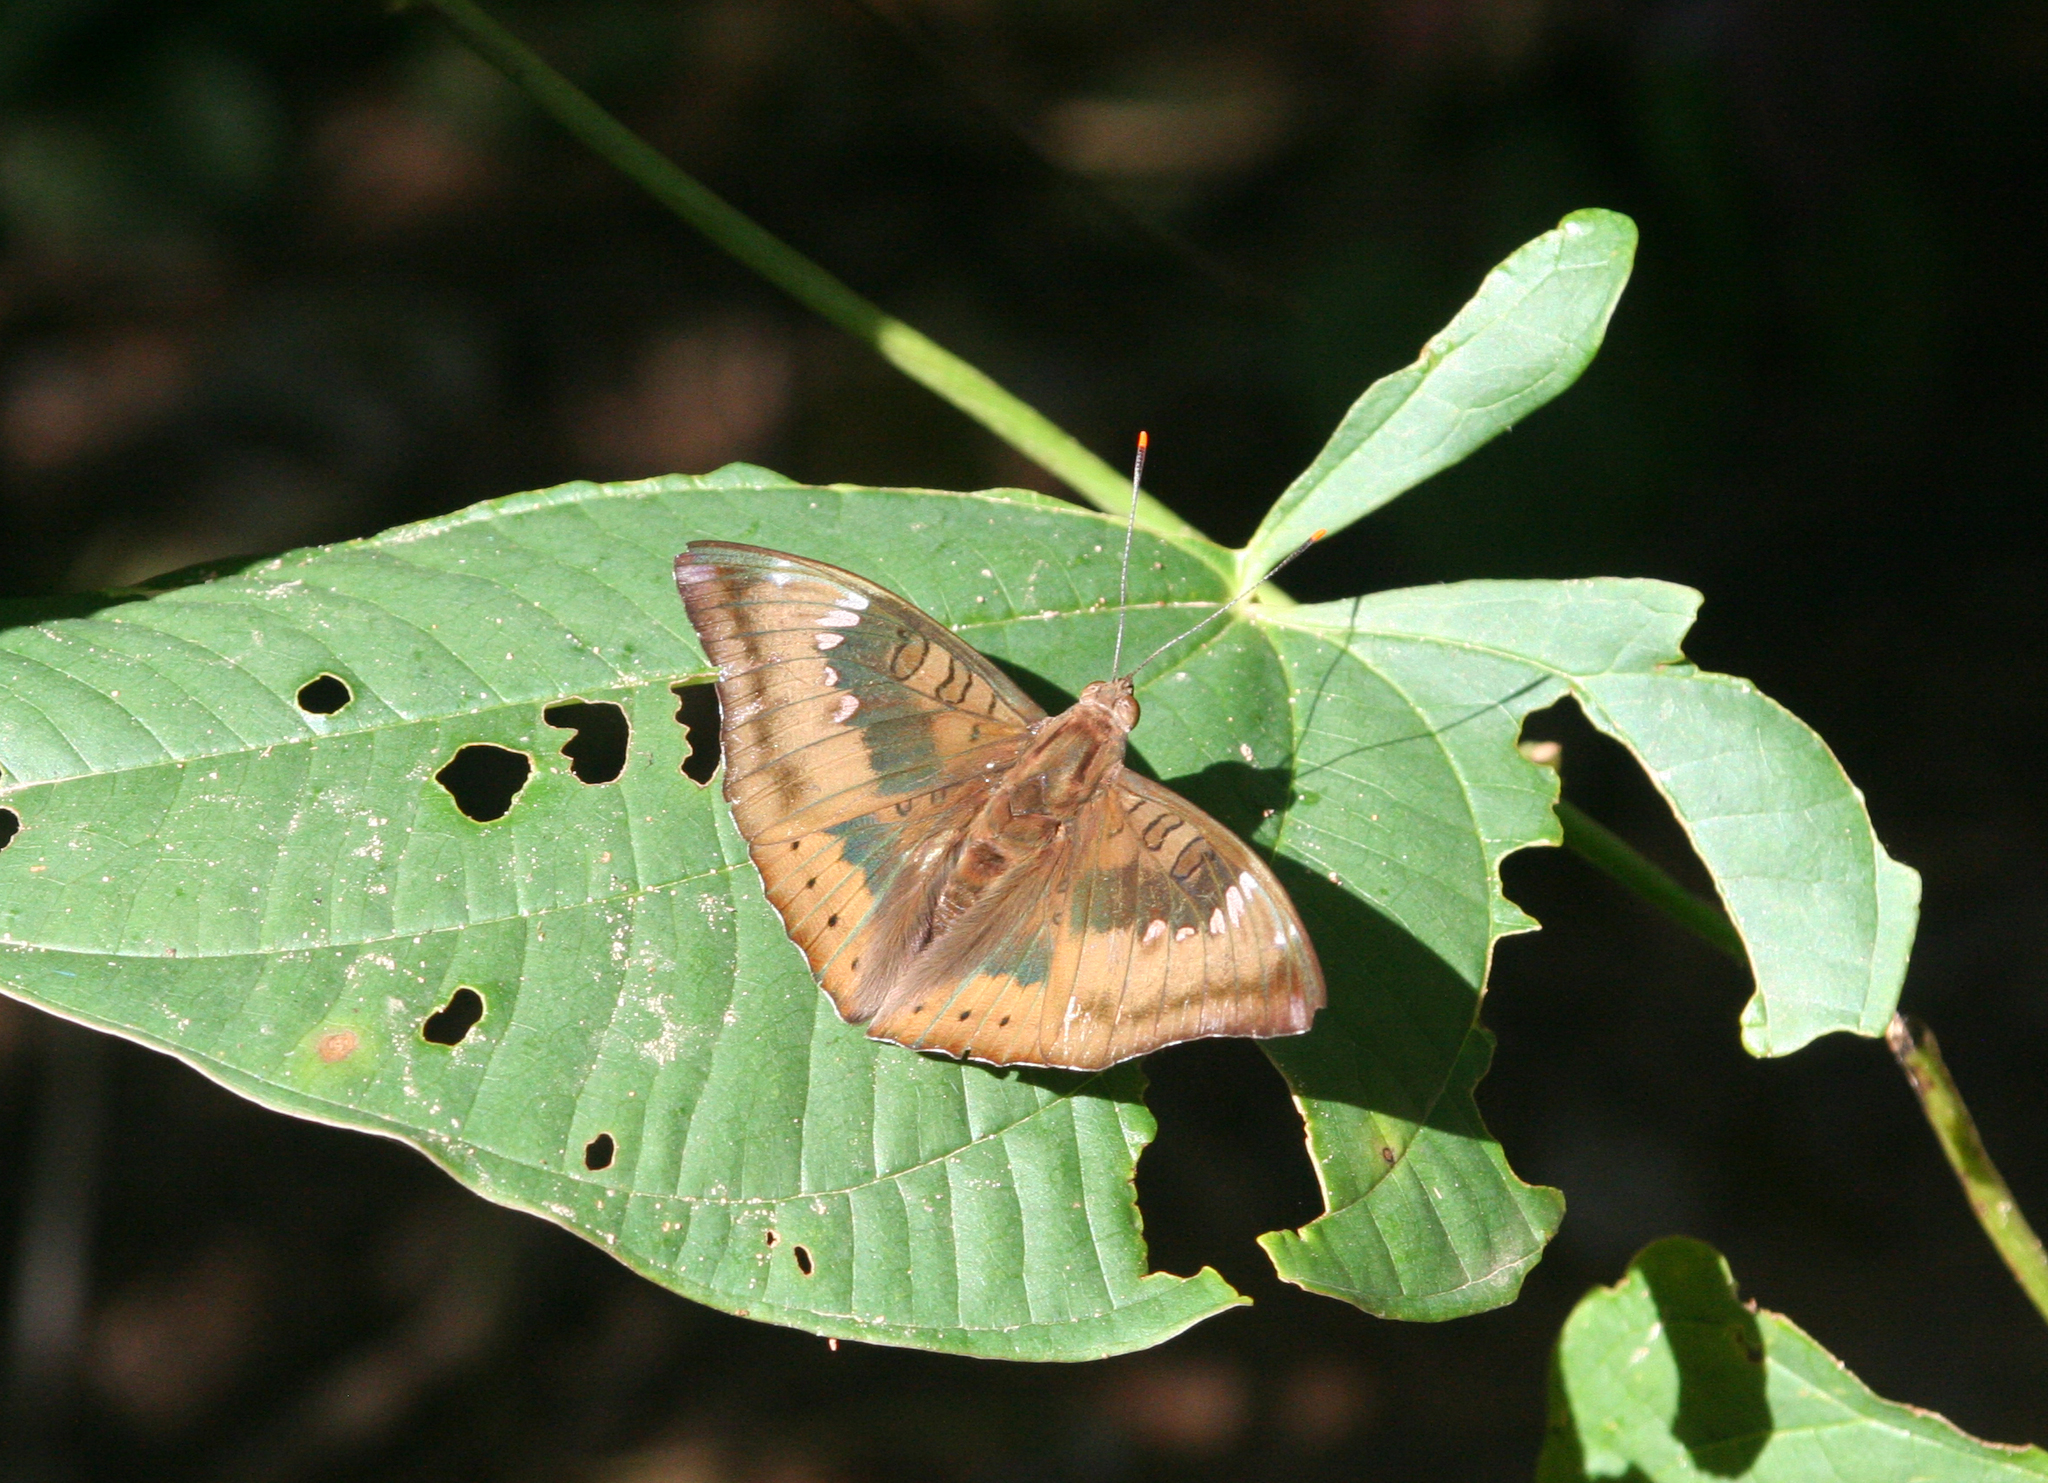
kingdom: Animalia
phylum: Arthropoda
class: Insecta
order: Lepidoptera
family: Nymphalidae
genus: Euthalia
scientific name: Euthalia aconthea
